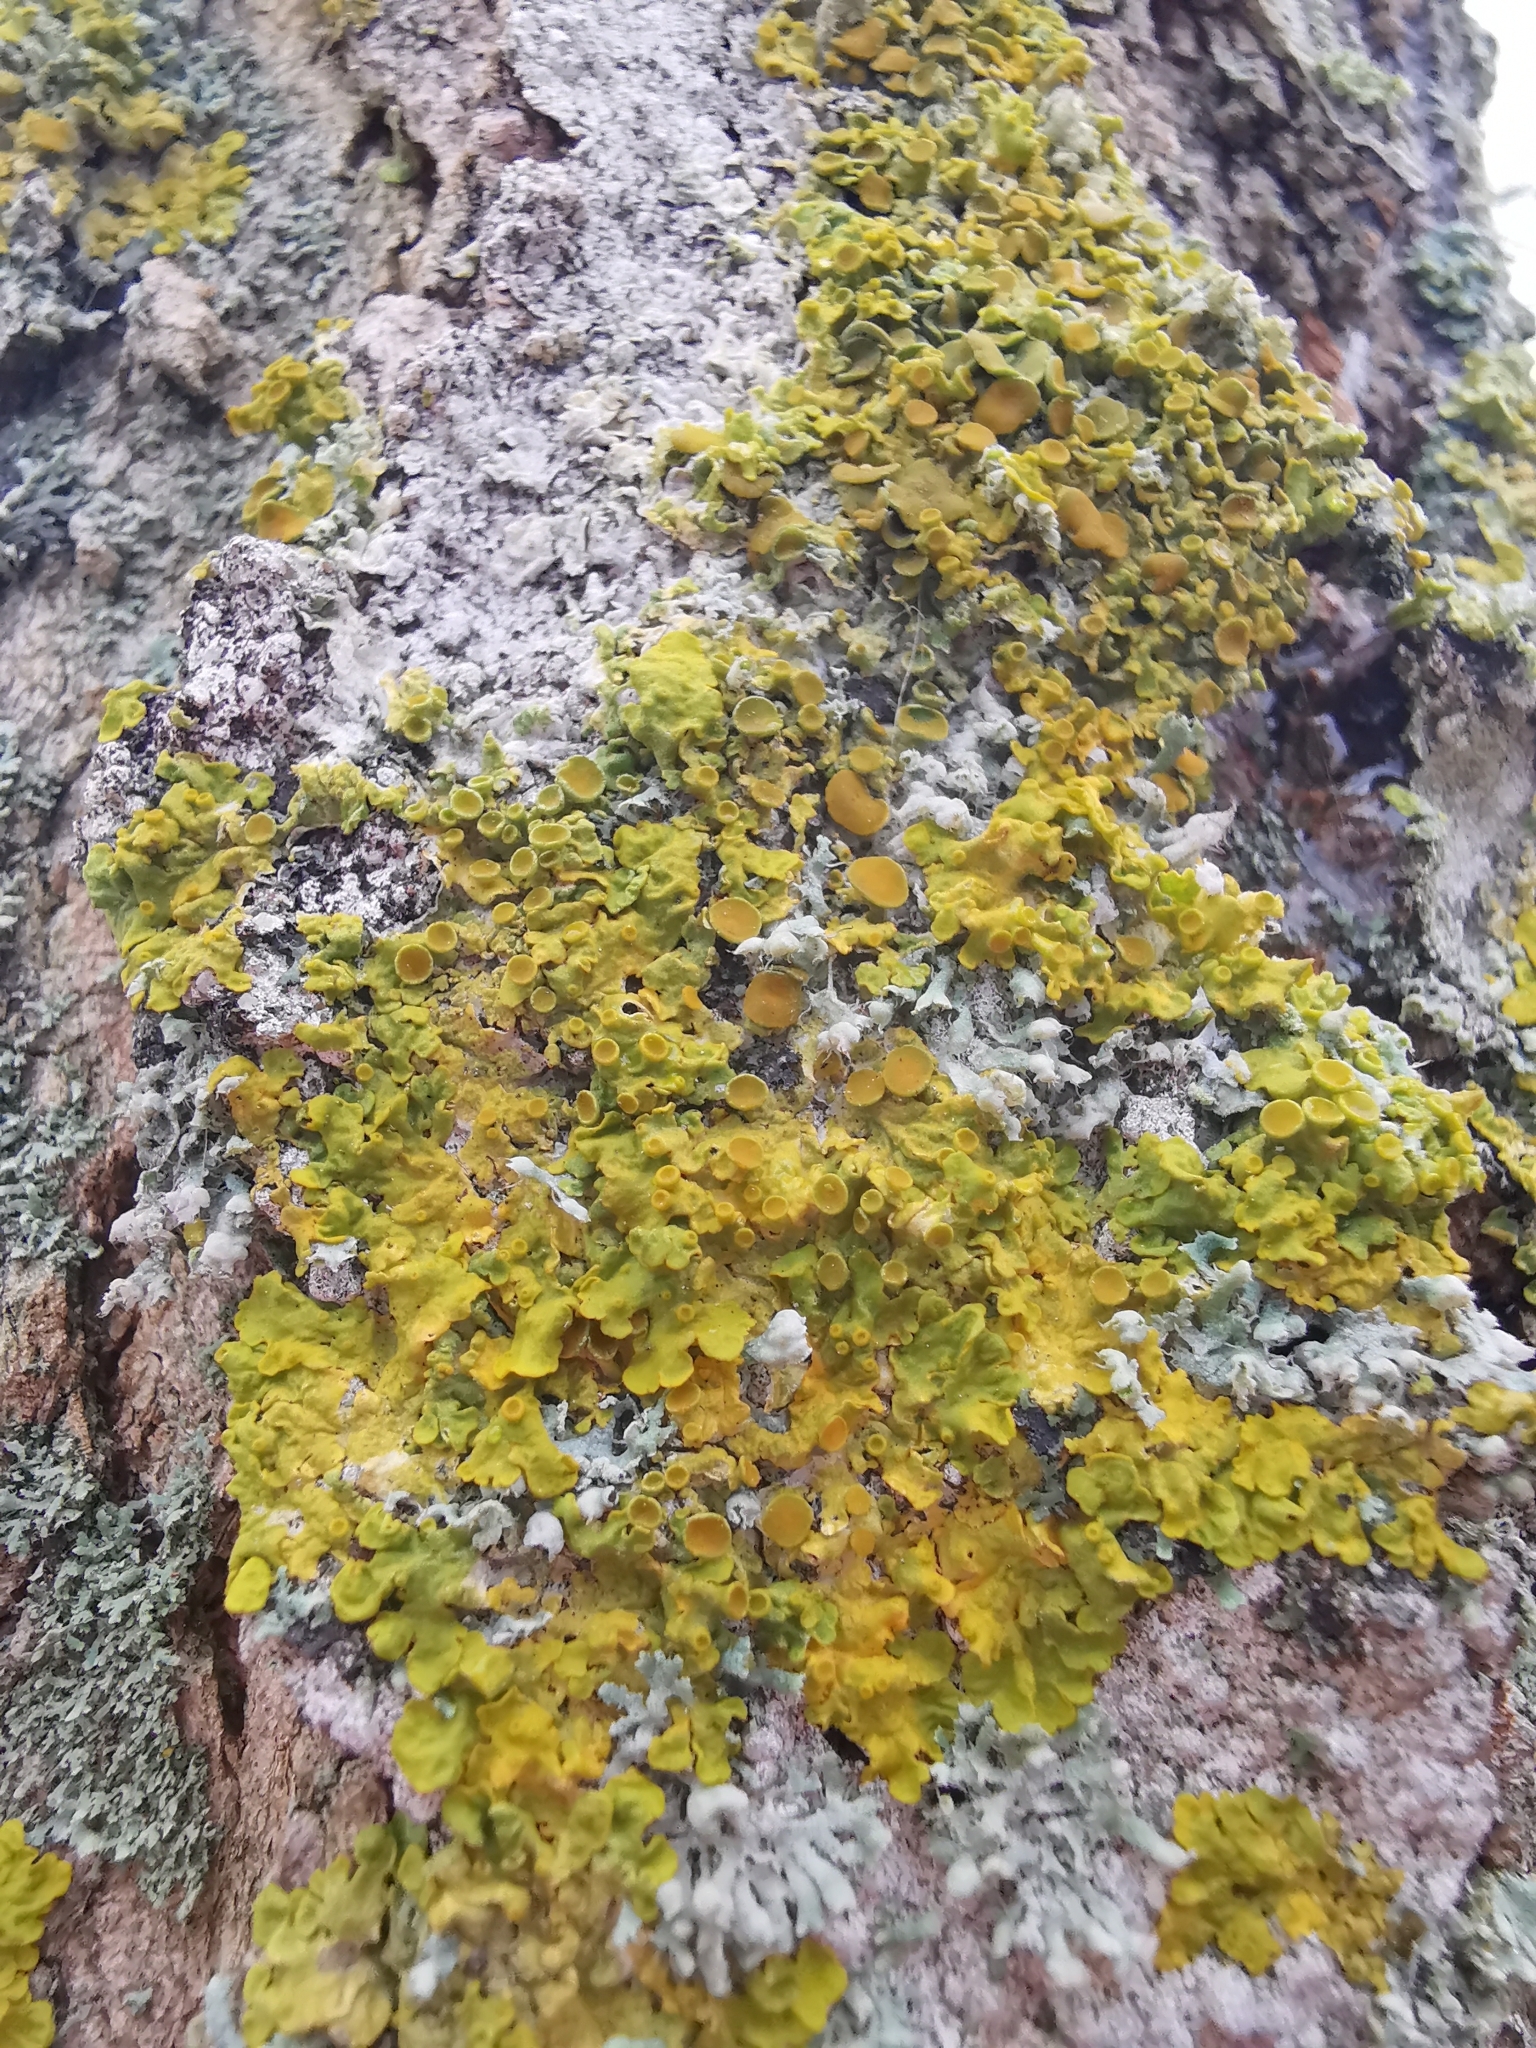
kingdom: Fungi
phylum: Ascomycota
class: Lecanoromycetes
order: Teloschistales
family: Teloschistaceae
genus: Xanthoria
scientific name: Xanthoria parietina
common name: Common orange lichen
